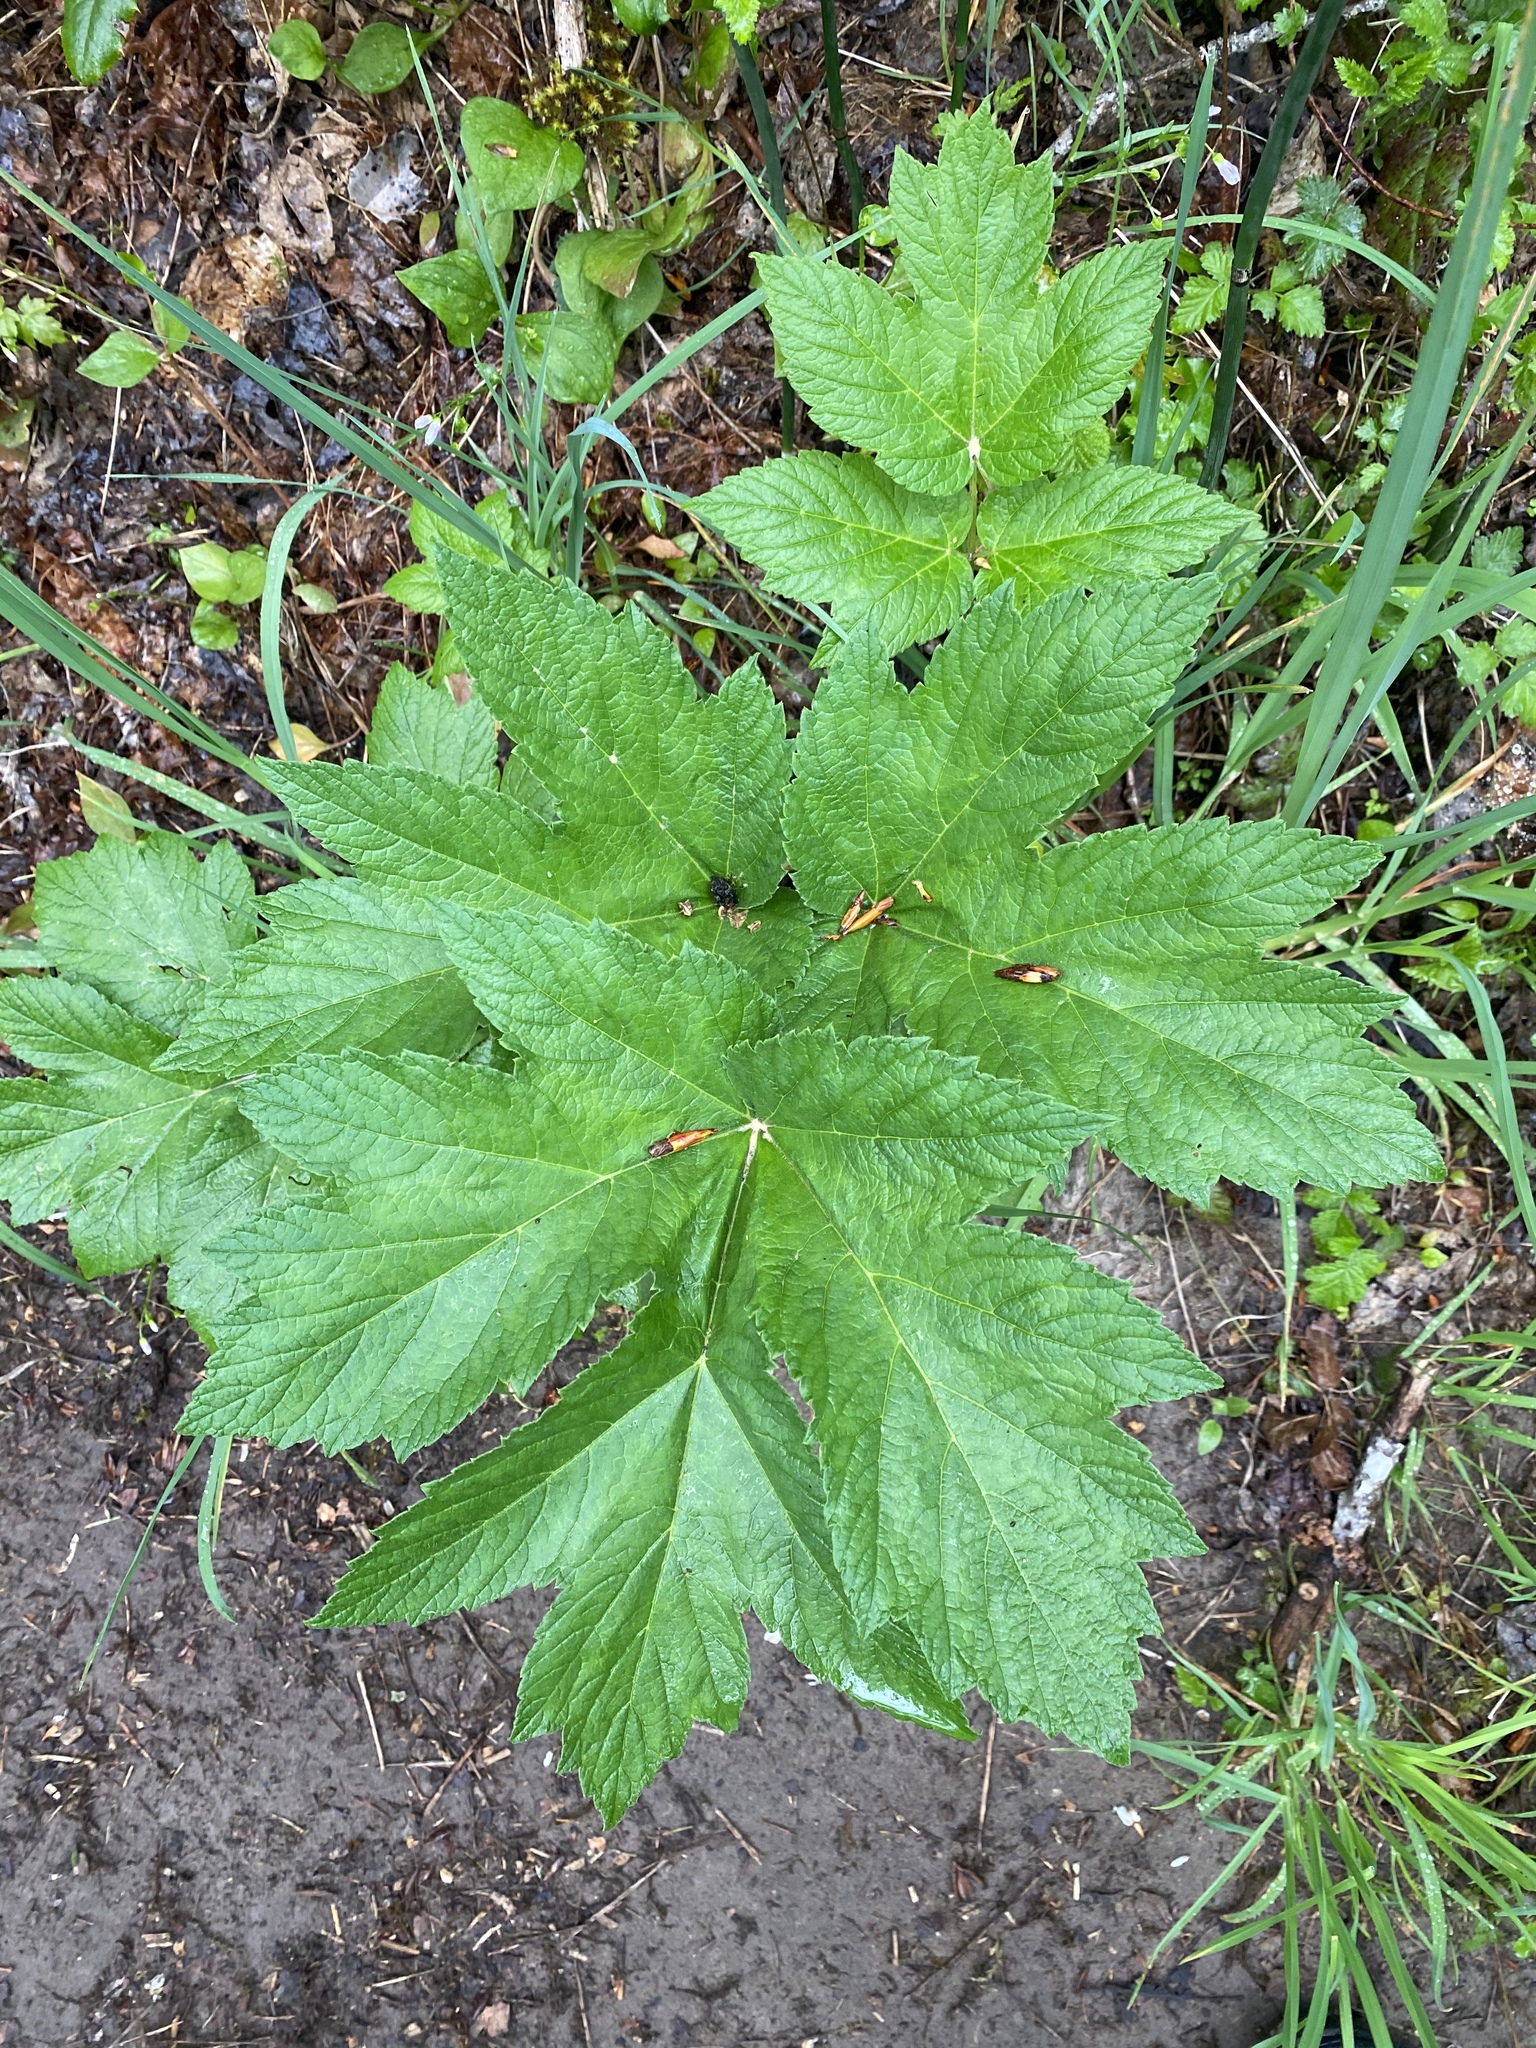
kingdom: Plantae
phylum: Tracheophyta
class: Magnoliopsida
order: Apiales
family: Apiaceae
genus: Heracleum
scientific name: Heracleum maximum
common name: American cow parsnip
